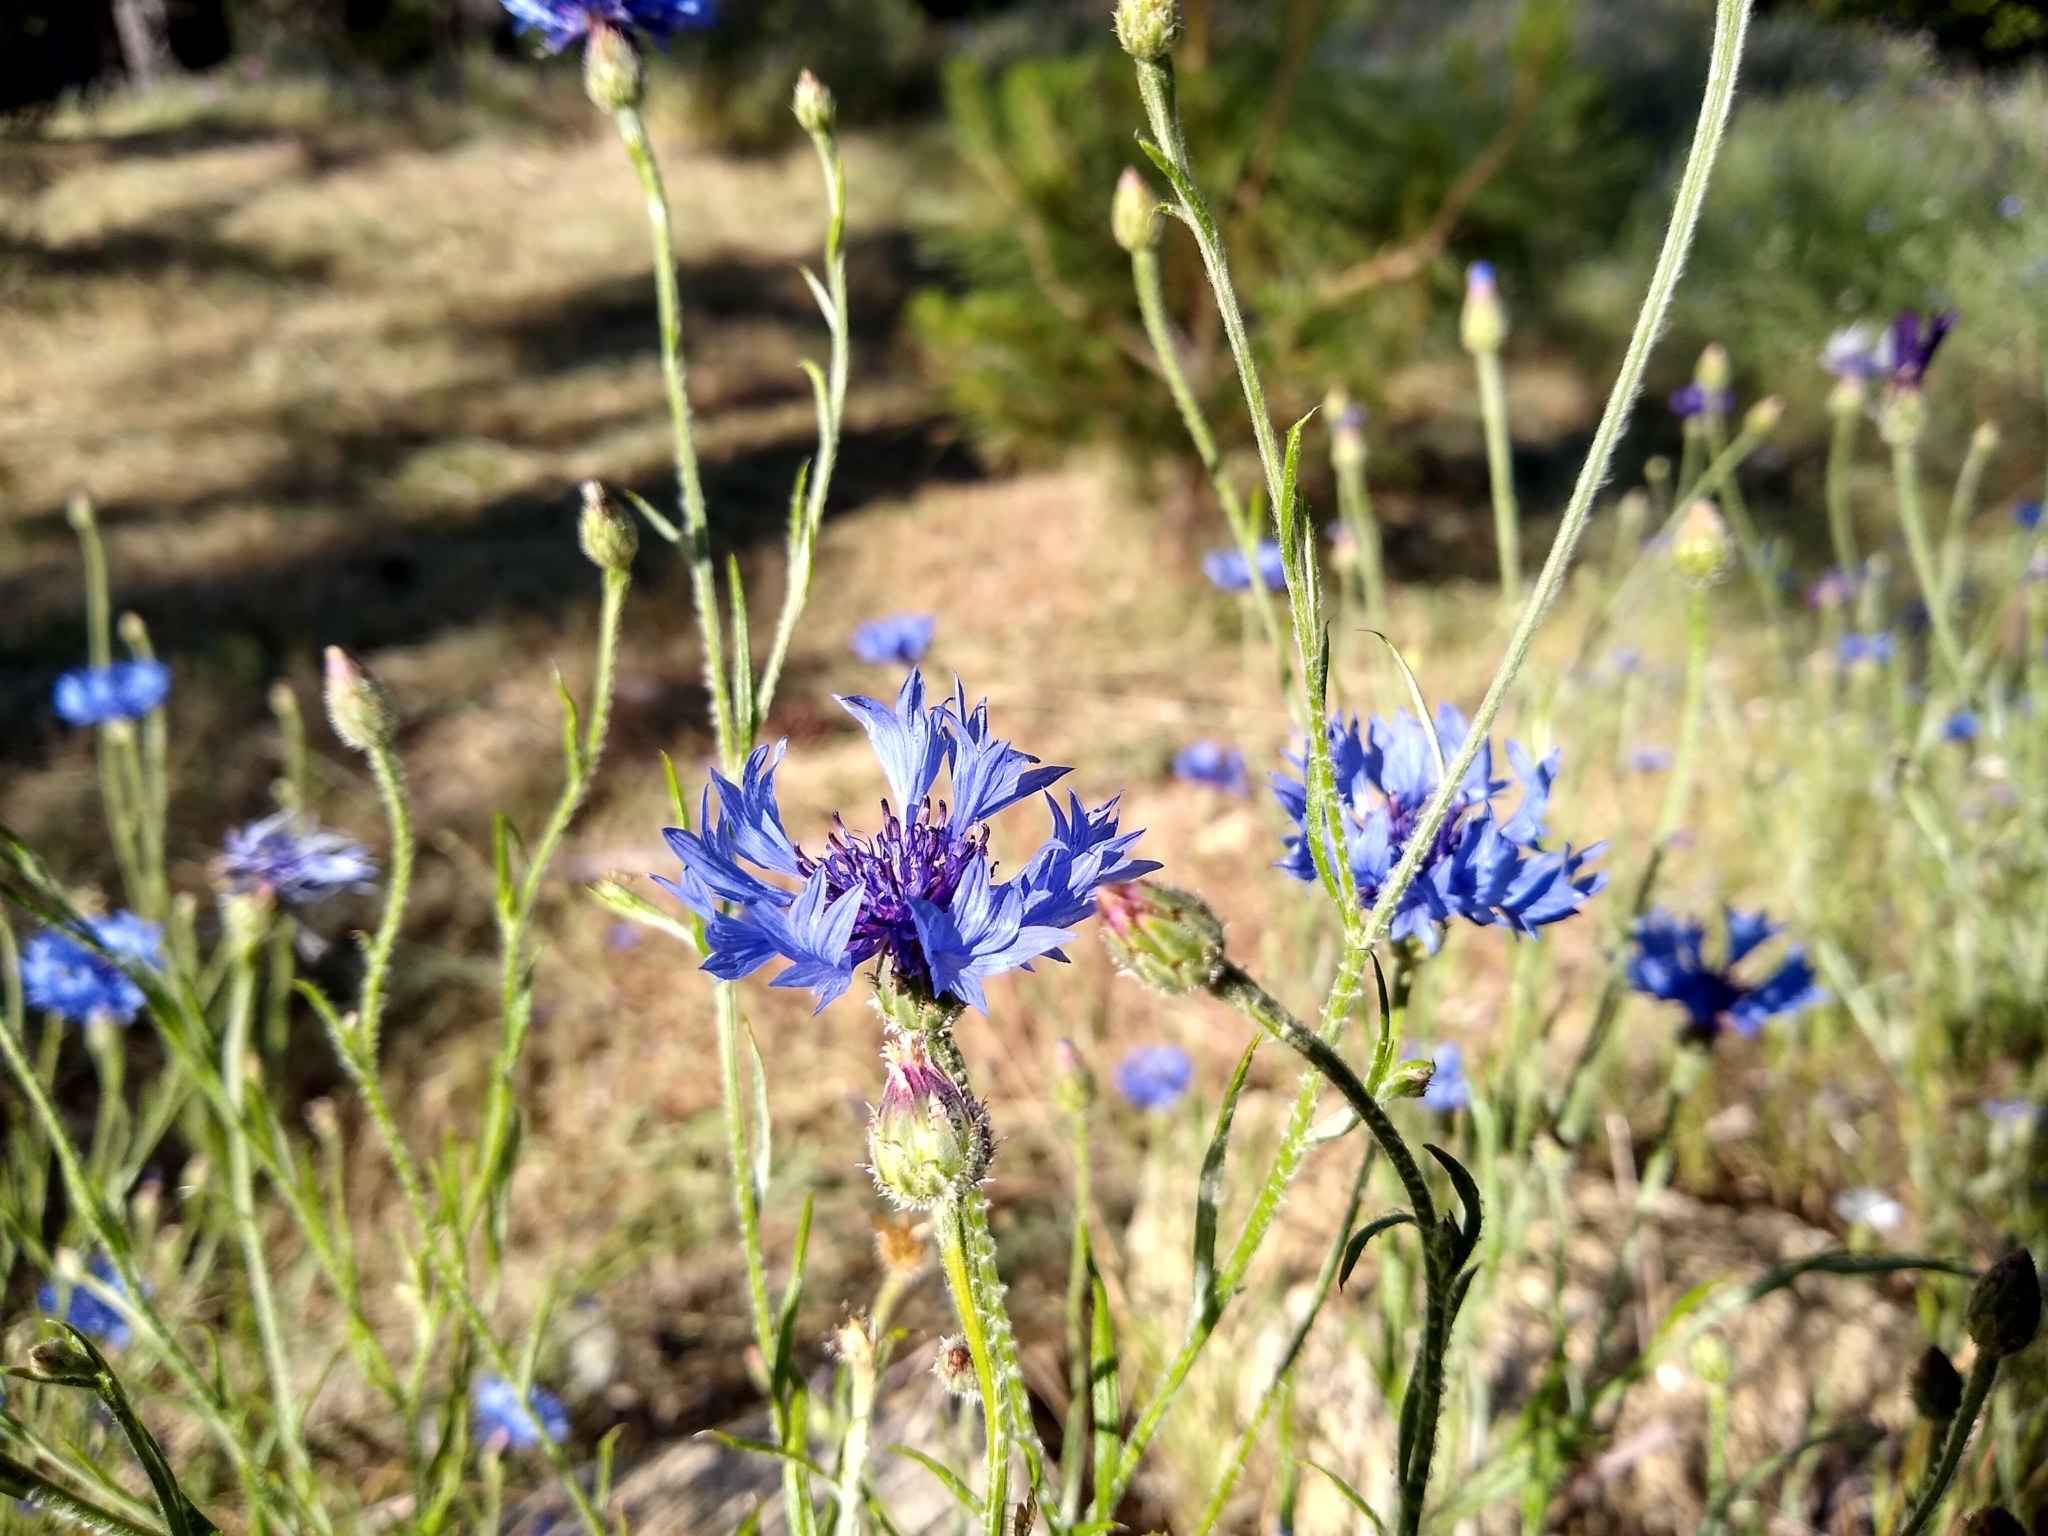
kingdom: Plantae
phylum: Tracheophyta
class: Magnoliopsida
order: Asterales
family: Asteraceae
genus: Centaurea
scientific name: Centaurea cyanus
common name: Cornflower
